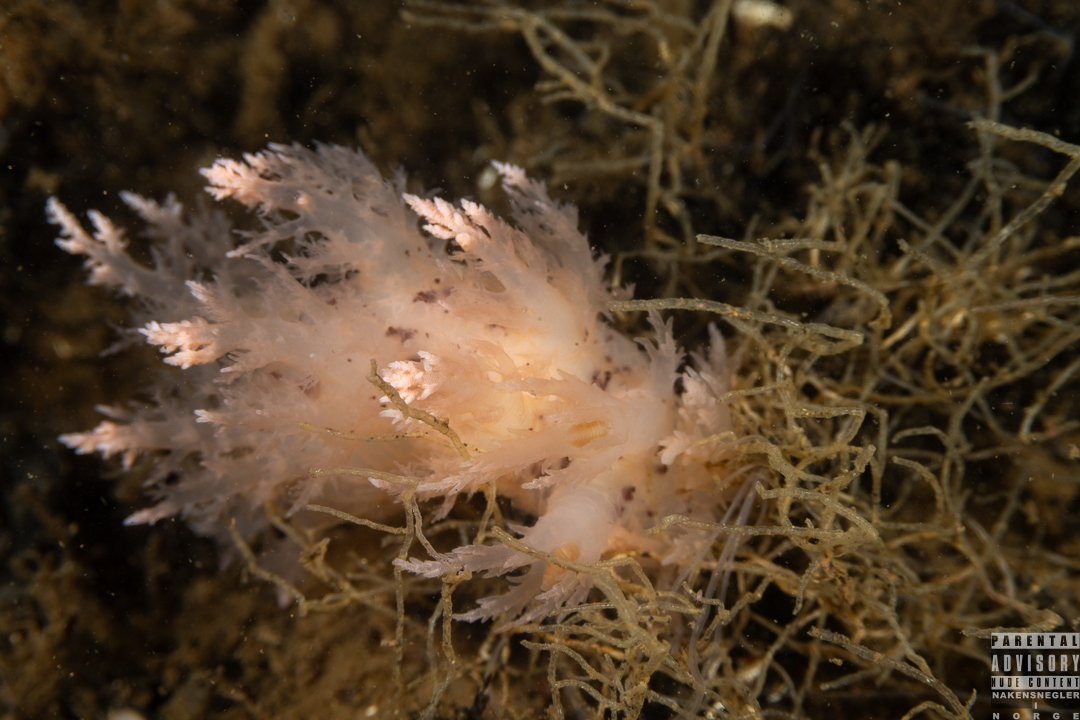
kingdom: Animalia
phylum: Mollusca
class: Gastropoda
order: Nudibranchia
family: Dendronotidae
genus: Dendronotus
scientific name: Dendronotus europaeus
